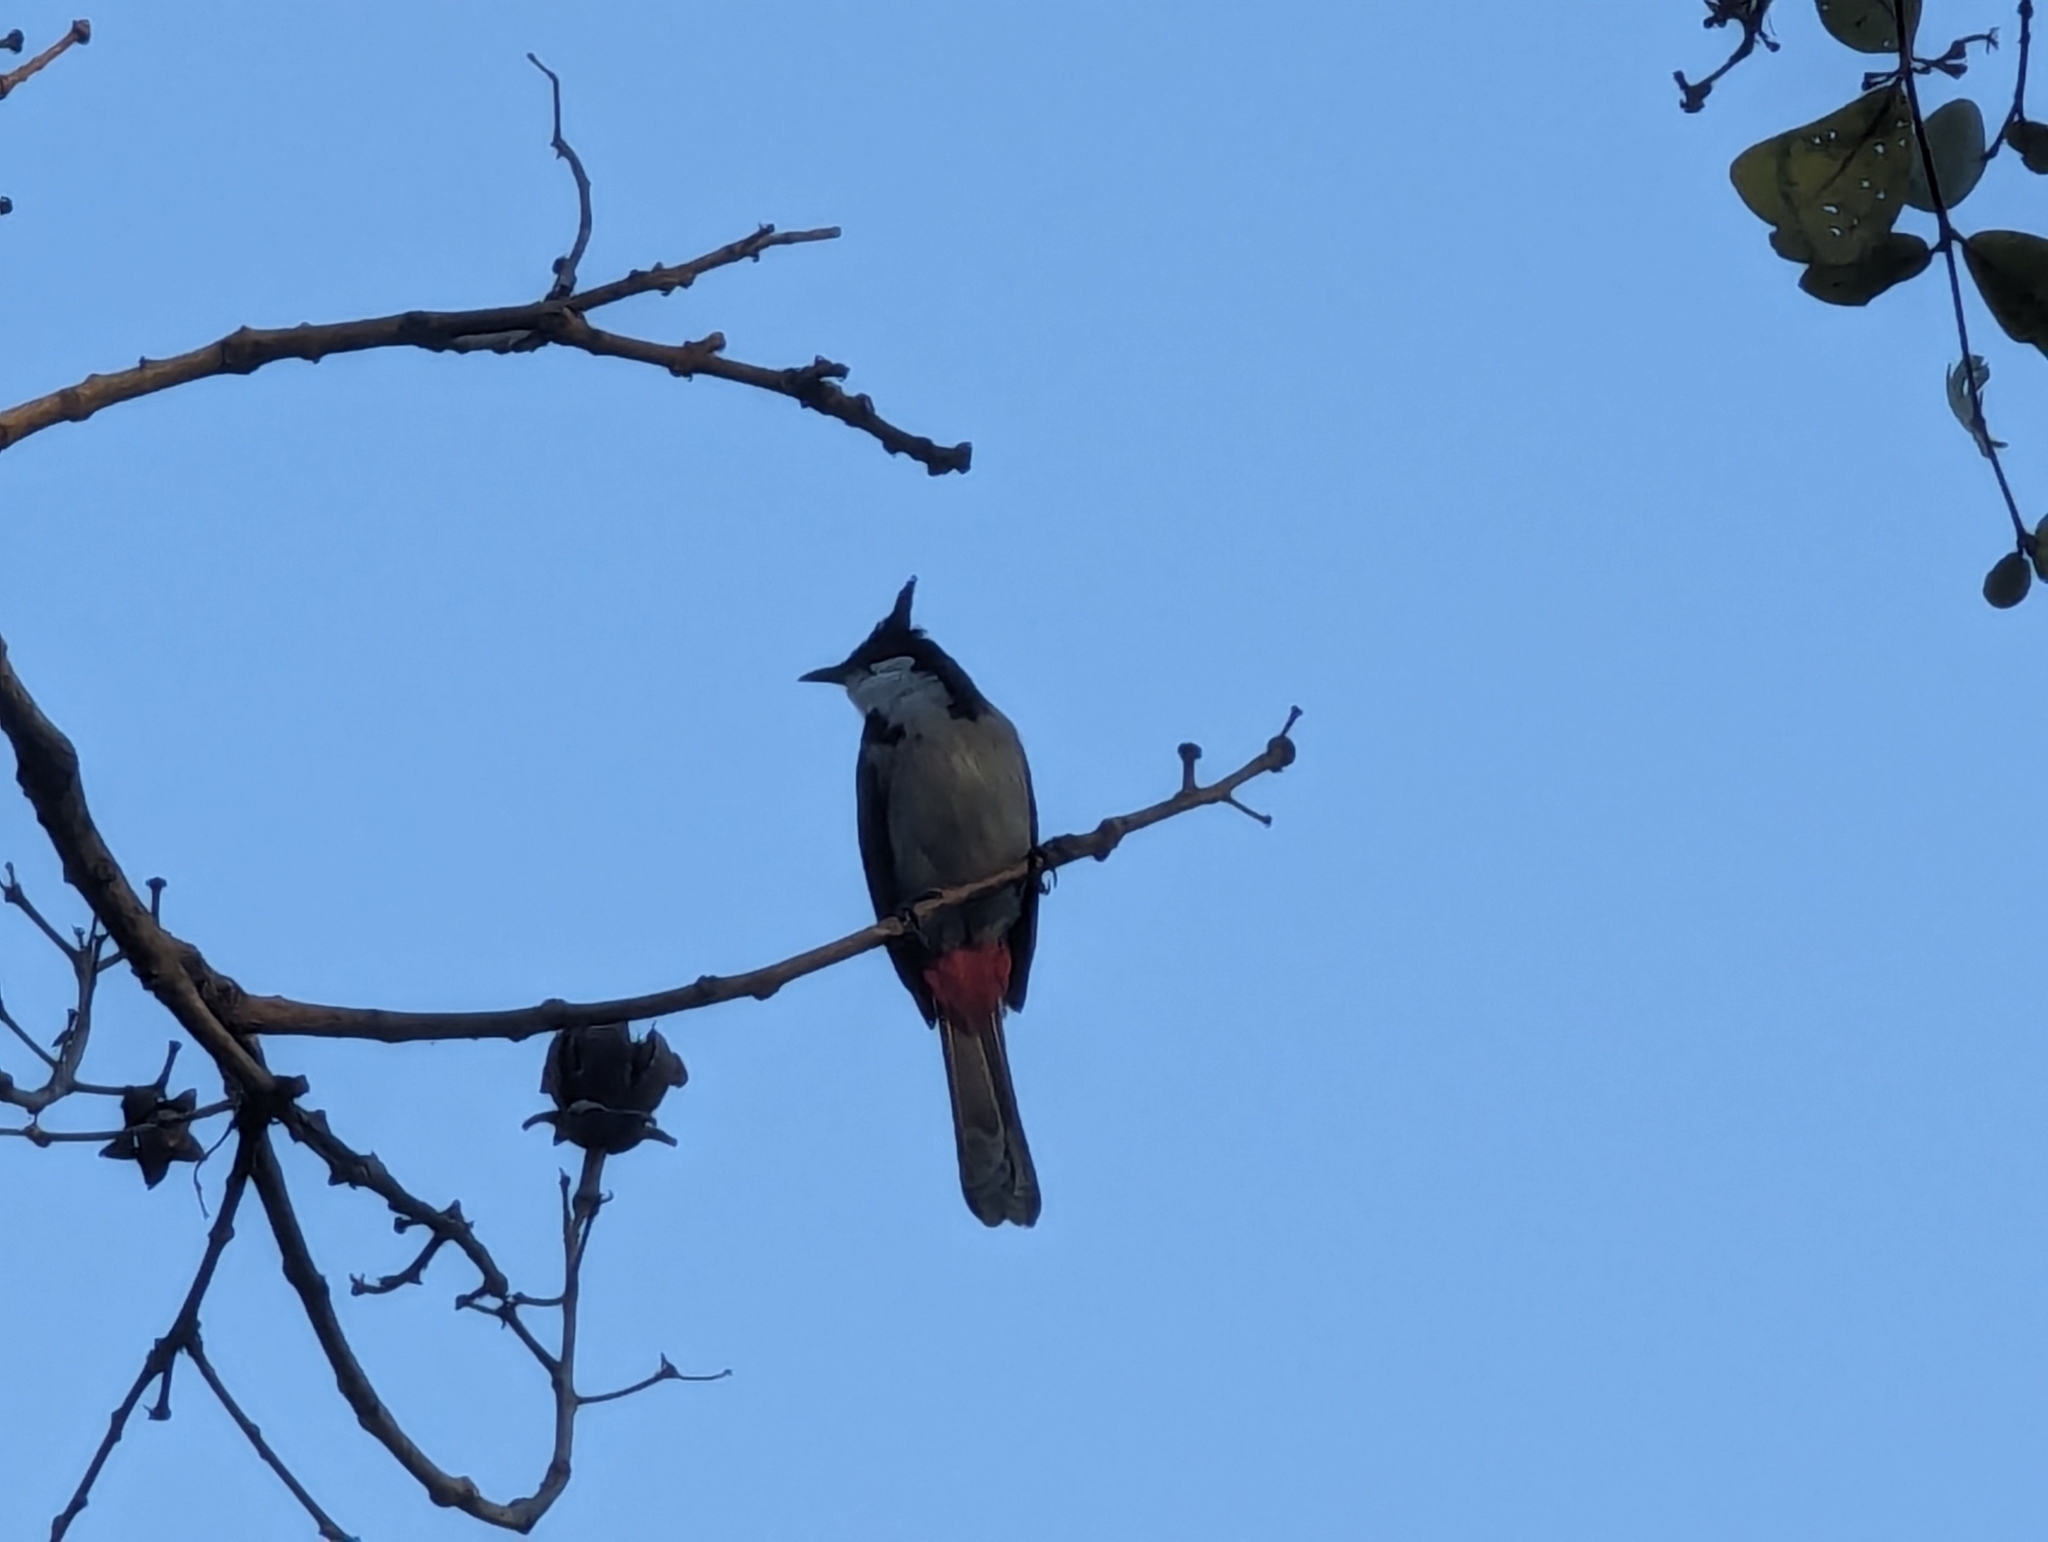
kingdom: Animalia
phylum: Chordata
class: Aves
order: Passeriformes
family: Pycnonotidae
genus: Pycnonotus
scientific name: Pycnonotus jocosus
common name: Red-whiskered bulbul
